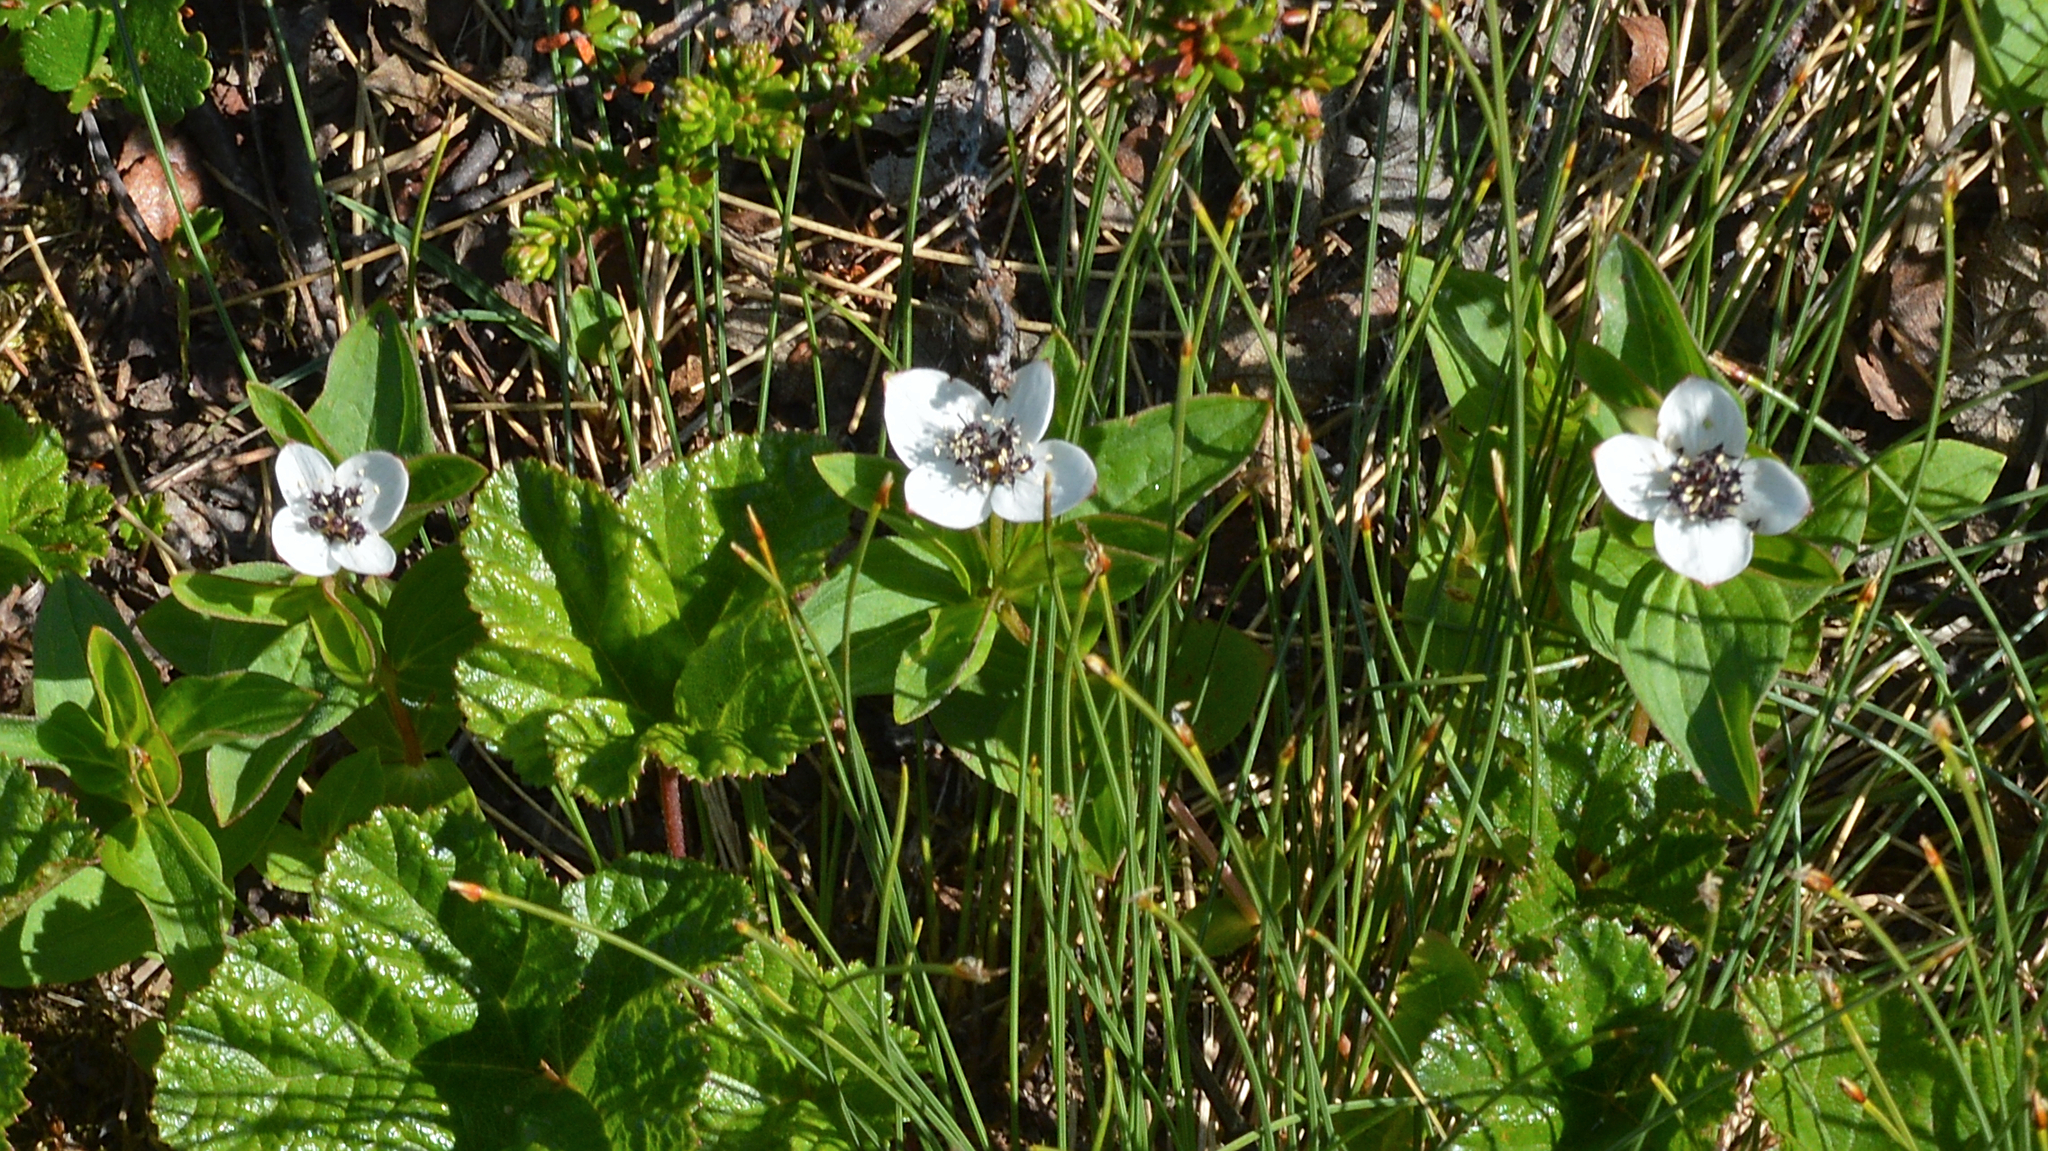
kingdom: Plantae
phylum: Tracheophyta
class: Magnoliopsida
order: Cornales
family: Cornaceae
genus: Cornus
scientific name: Cornus suecica
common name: Dwarf cornel
